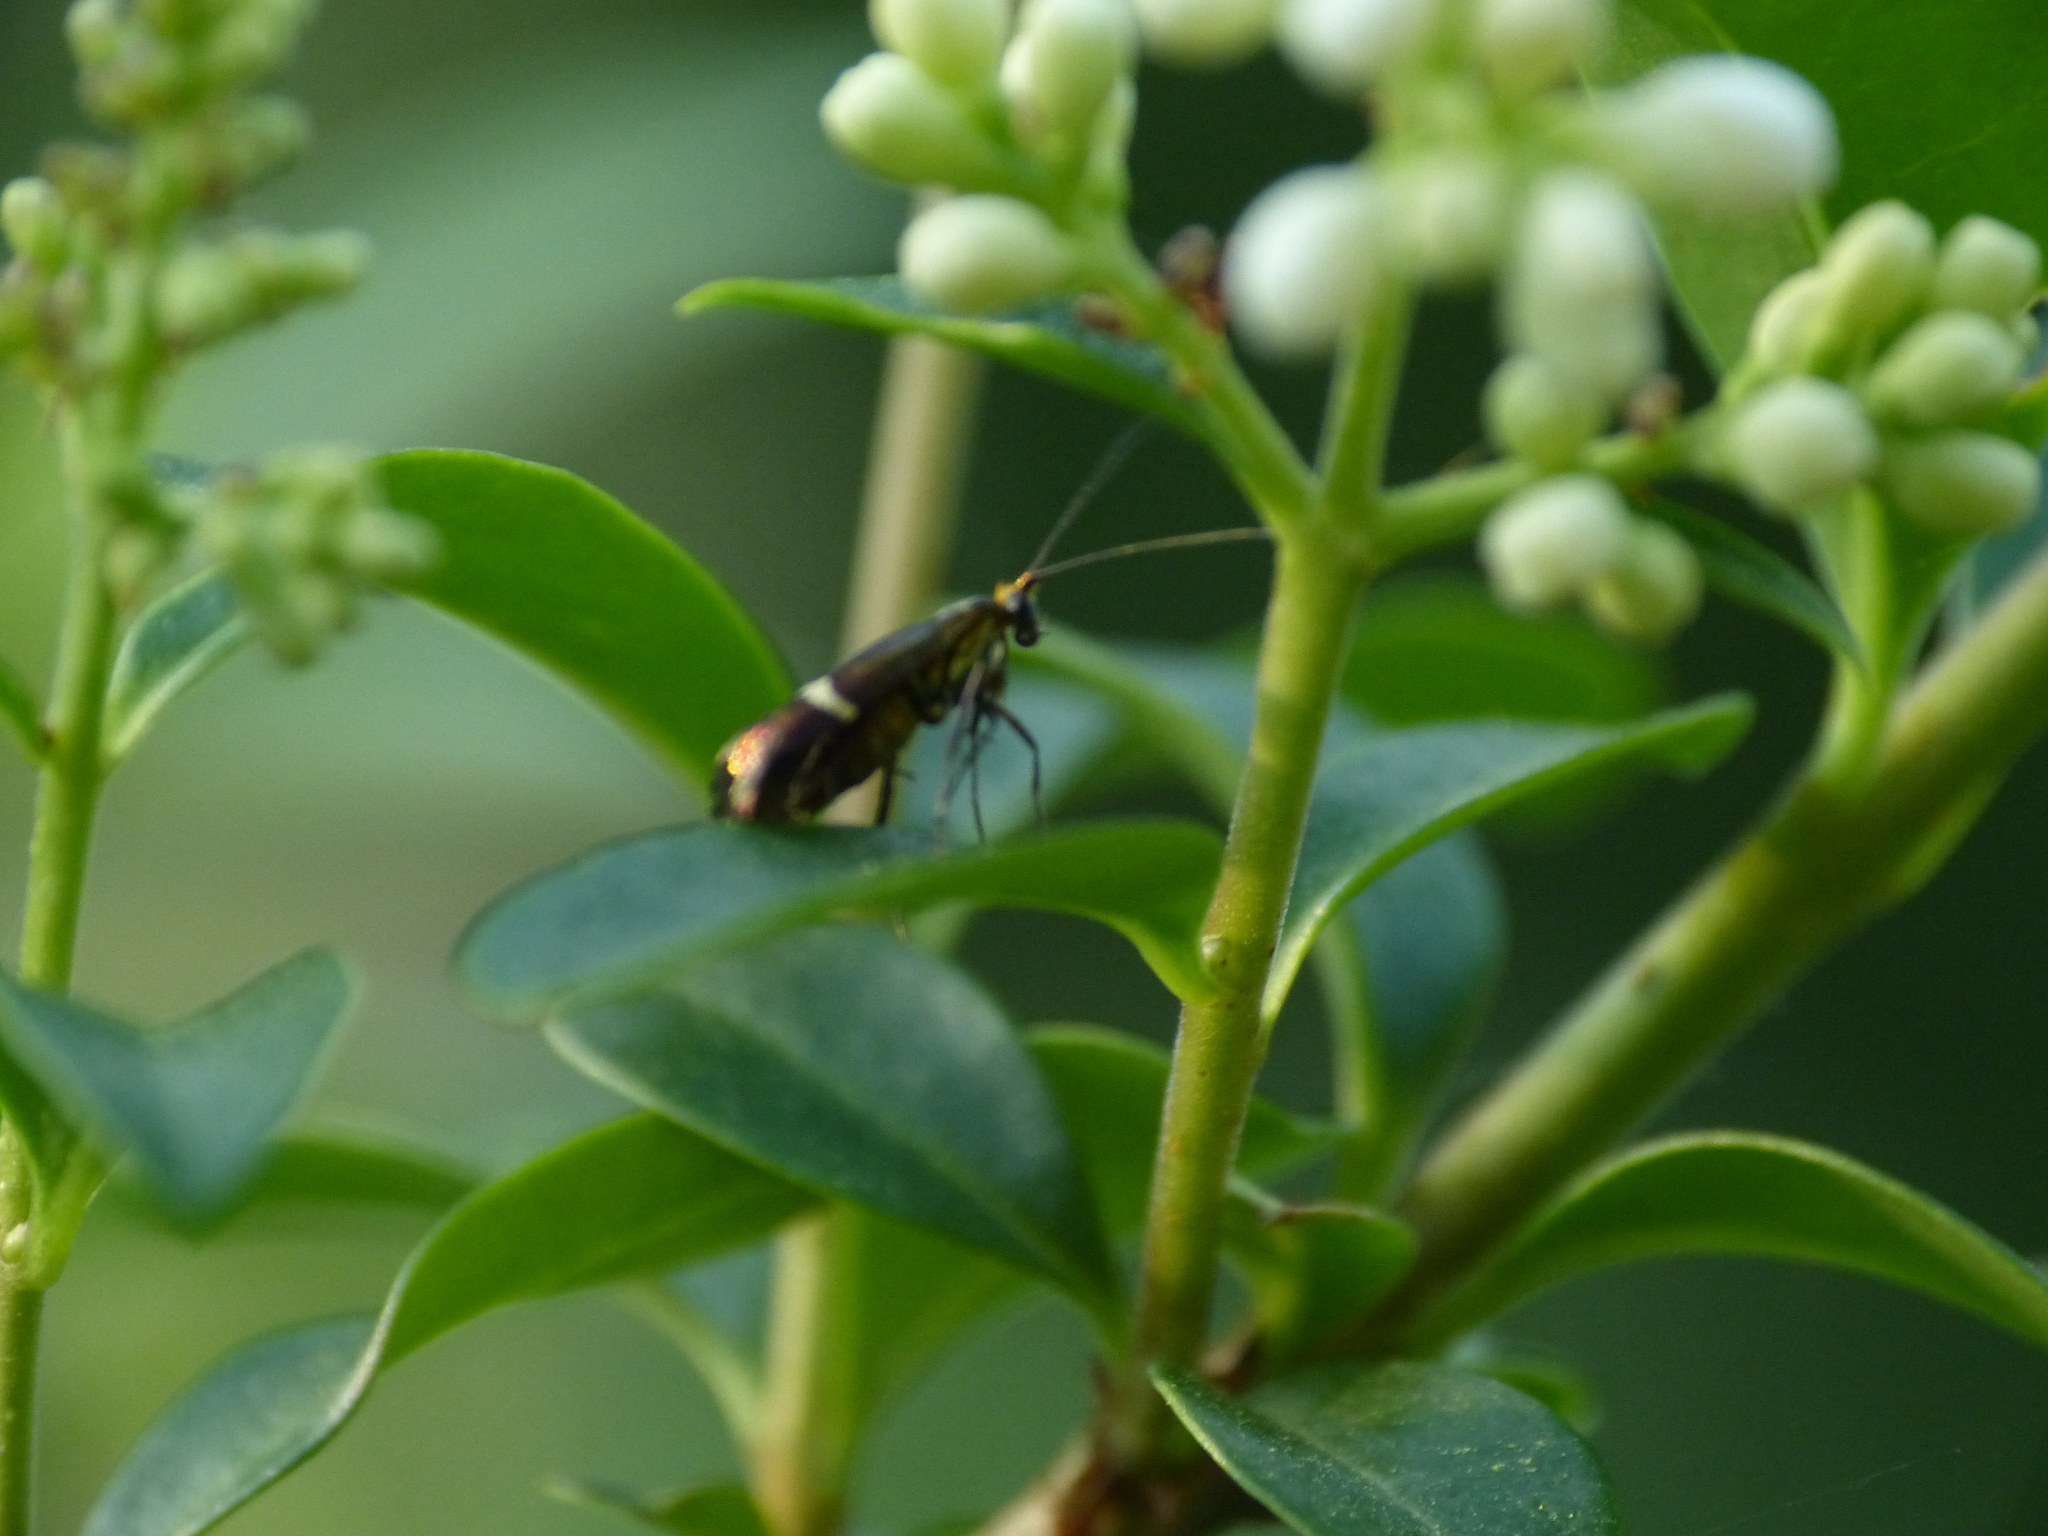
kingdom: Animalia
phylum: Arthropoda
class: Insecta
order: Lepidoptera
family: Adelidae
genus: Adela
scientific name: Adela australis
